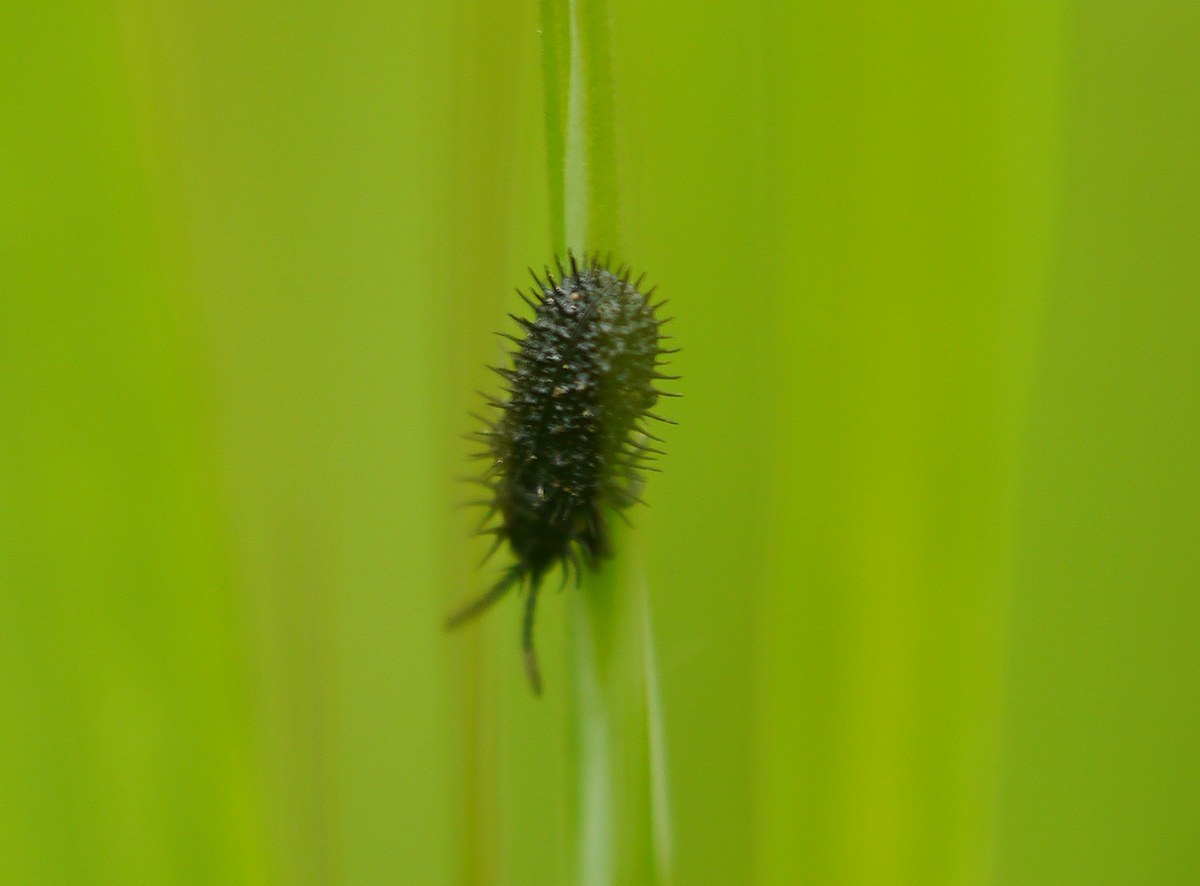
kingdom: Animalia
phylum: Arthropoda
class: Insecta
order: Coleoptera
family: Chrysomelidae
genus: Hispa
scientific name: Hispa atra
